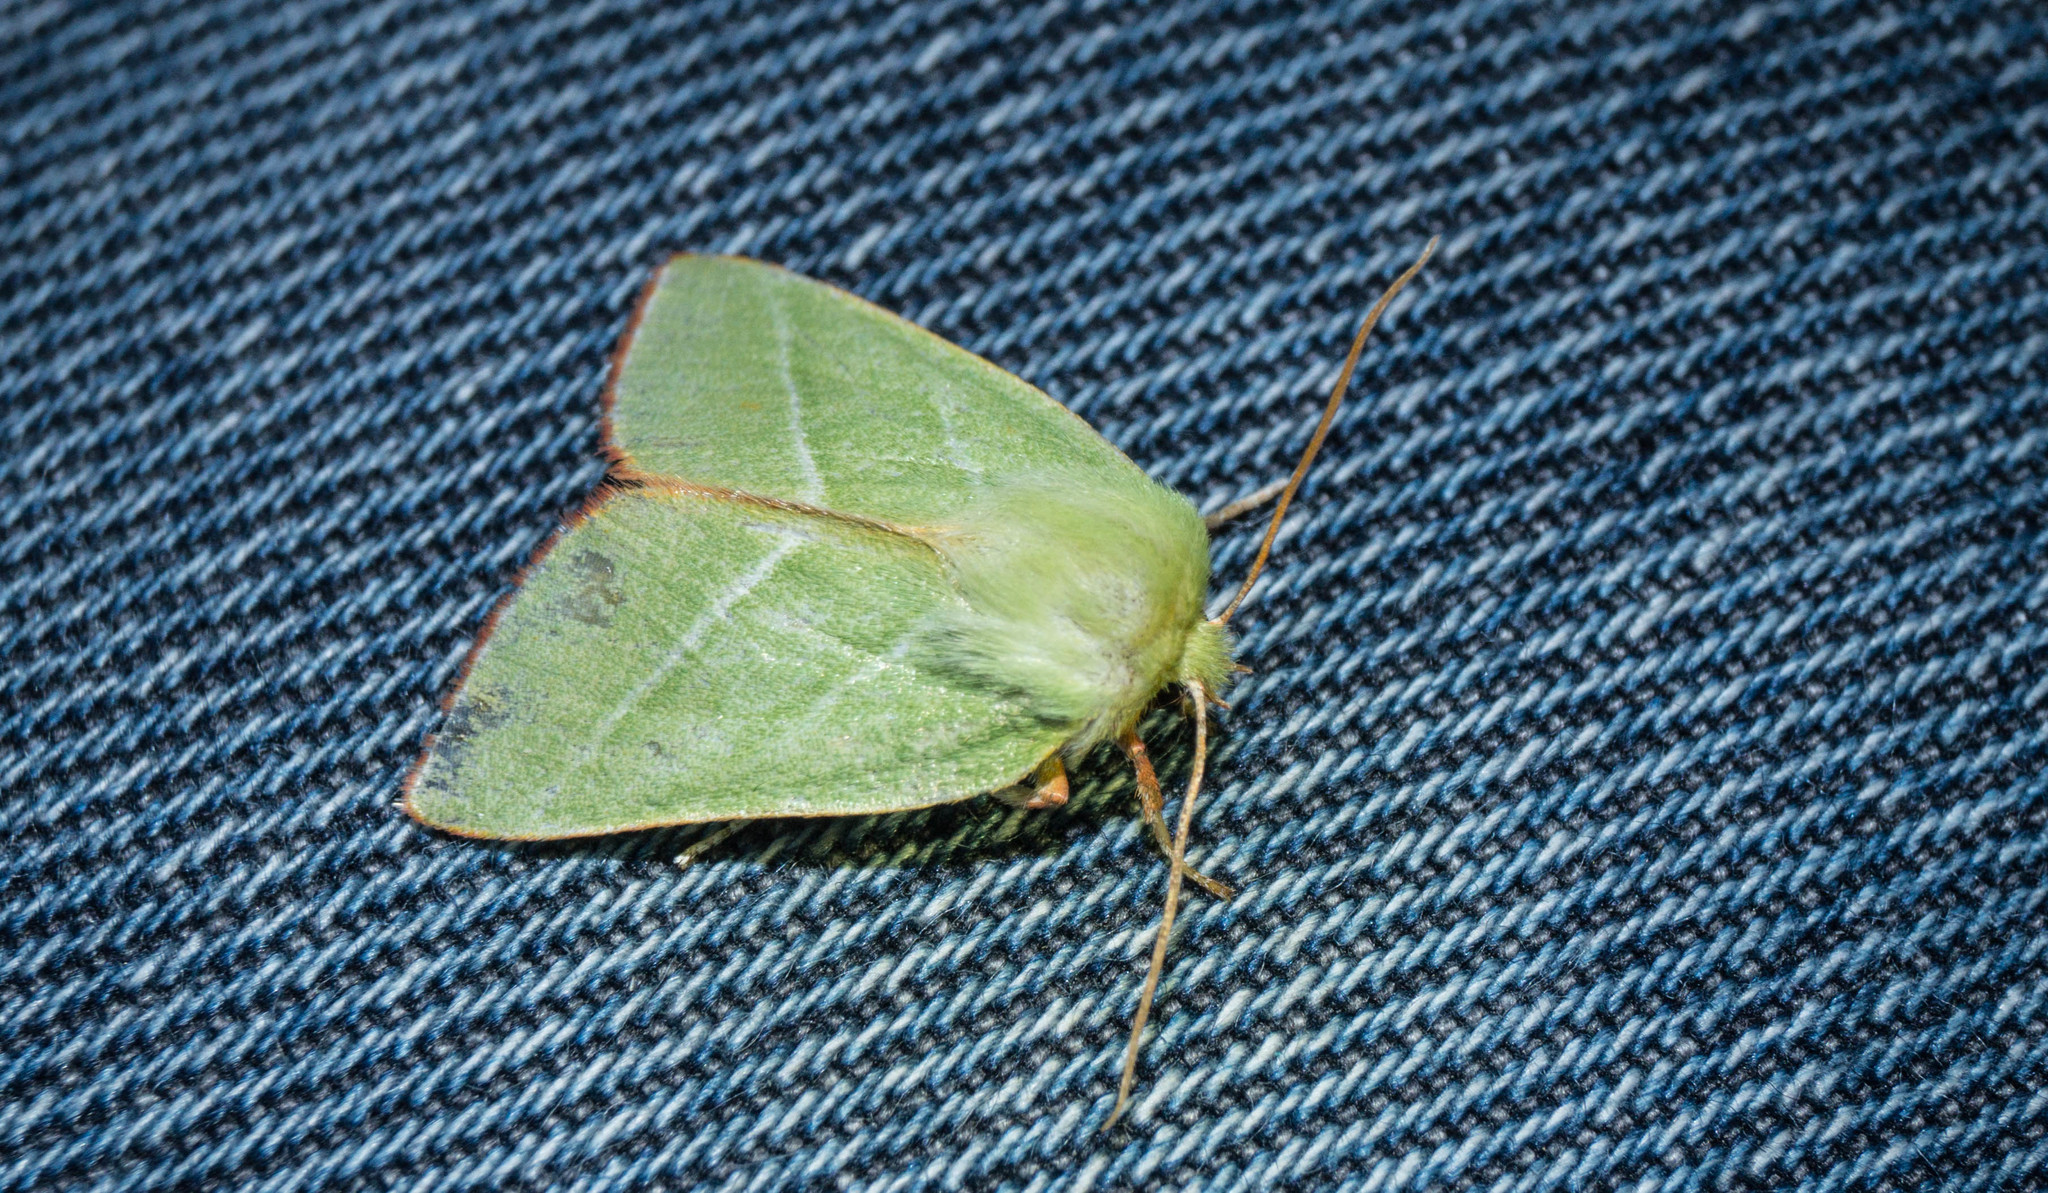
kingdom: Animalia
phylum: Arthropoda
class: Insecta
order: Lepidoptera
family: Nolidae
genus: Pseudoips
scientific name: Pseudoips prasinana
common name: Green silver-lines
